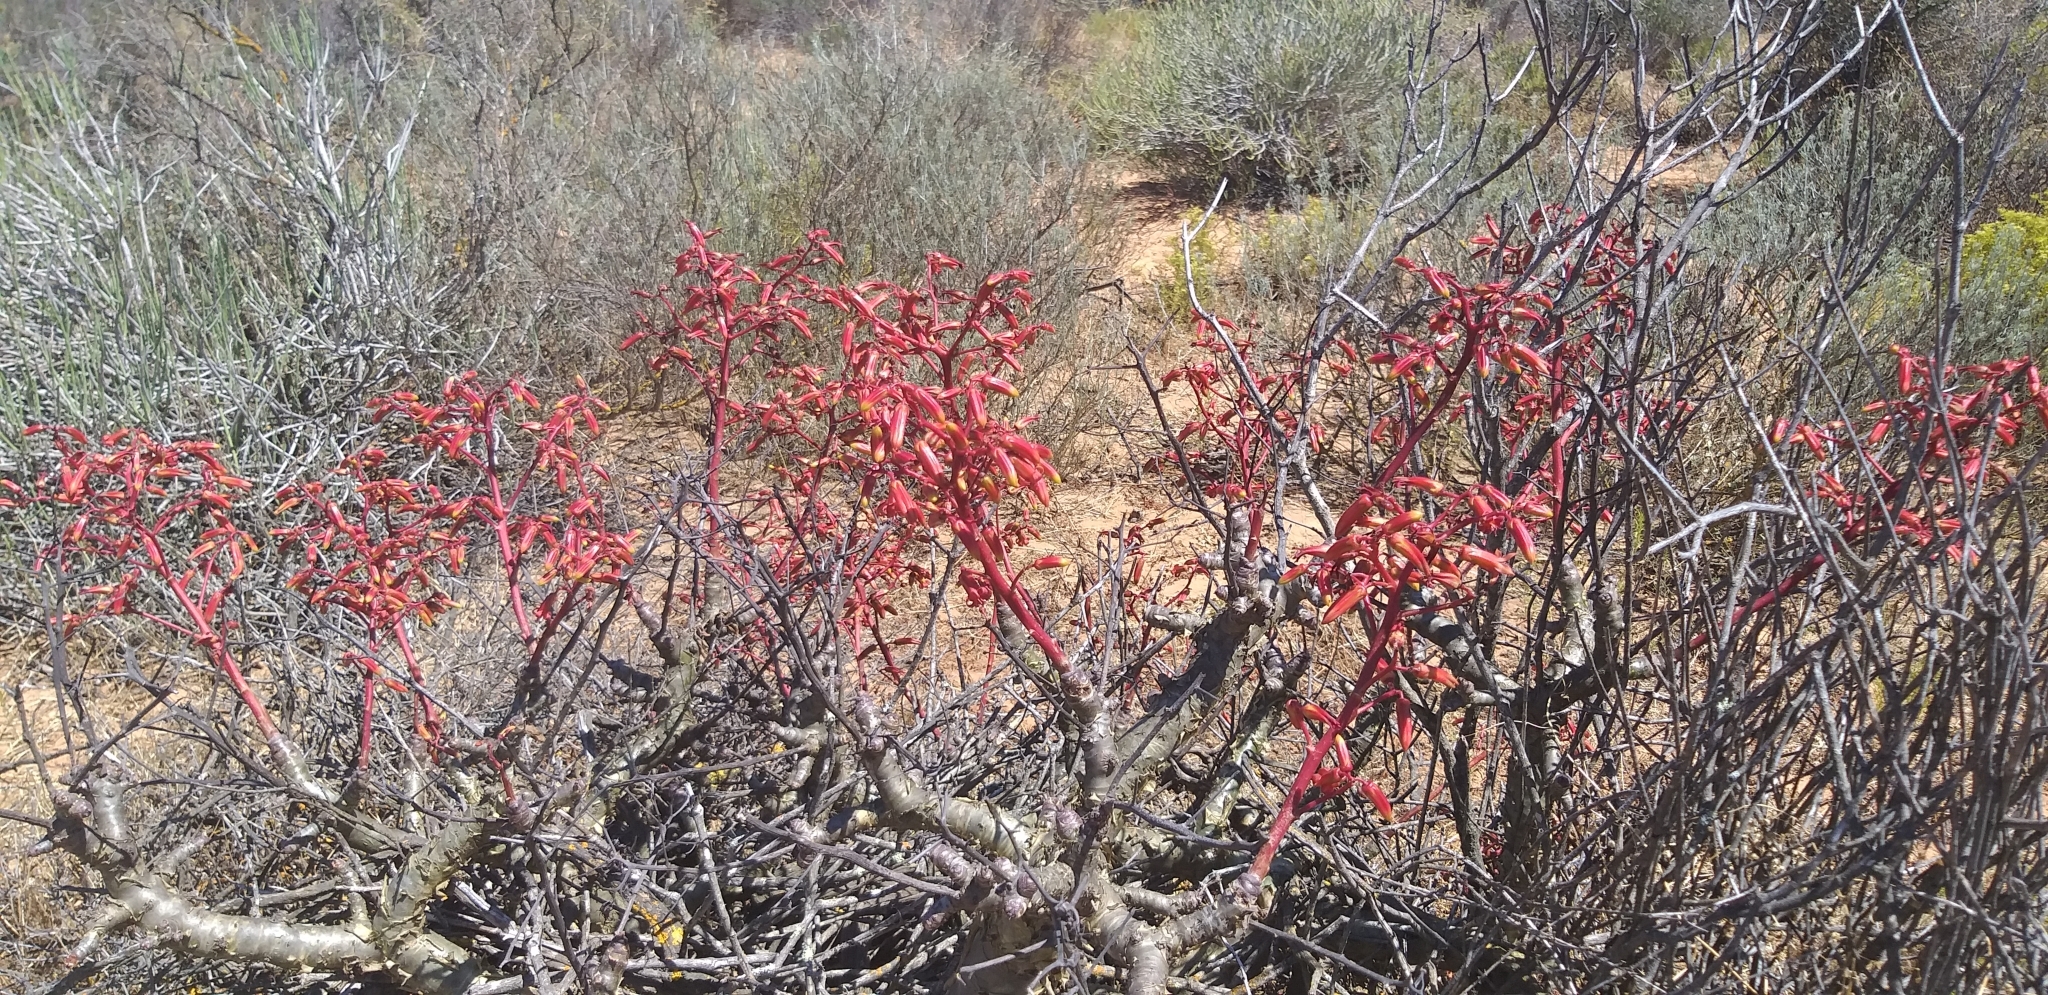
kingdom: Plantae
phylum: Tracheophyta
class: Magnoliopsida
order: Saxifragales
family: Crassulaceae
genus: Tylecodon
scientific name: Tylecodon paniculatus
